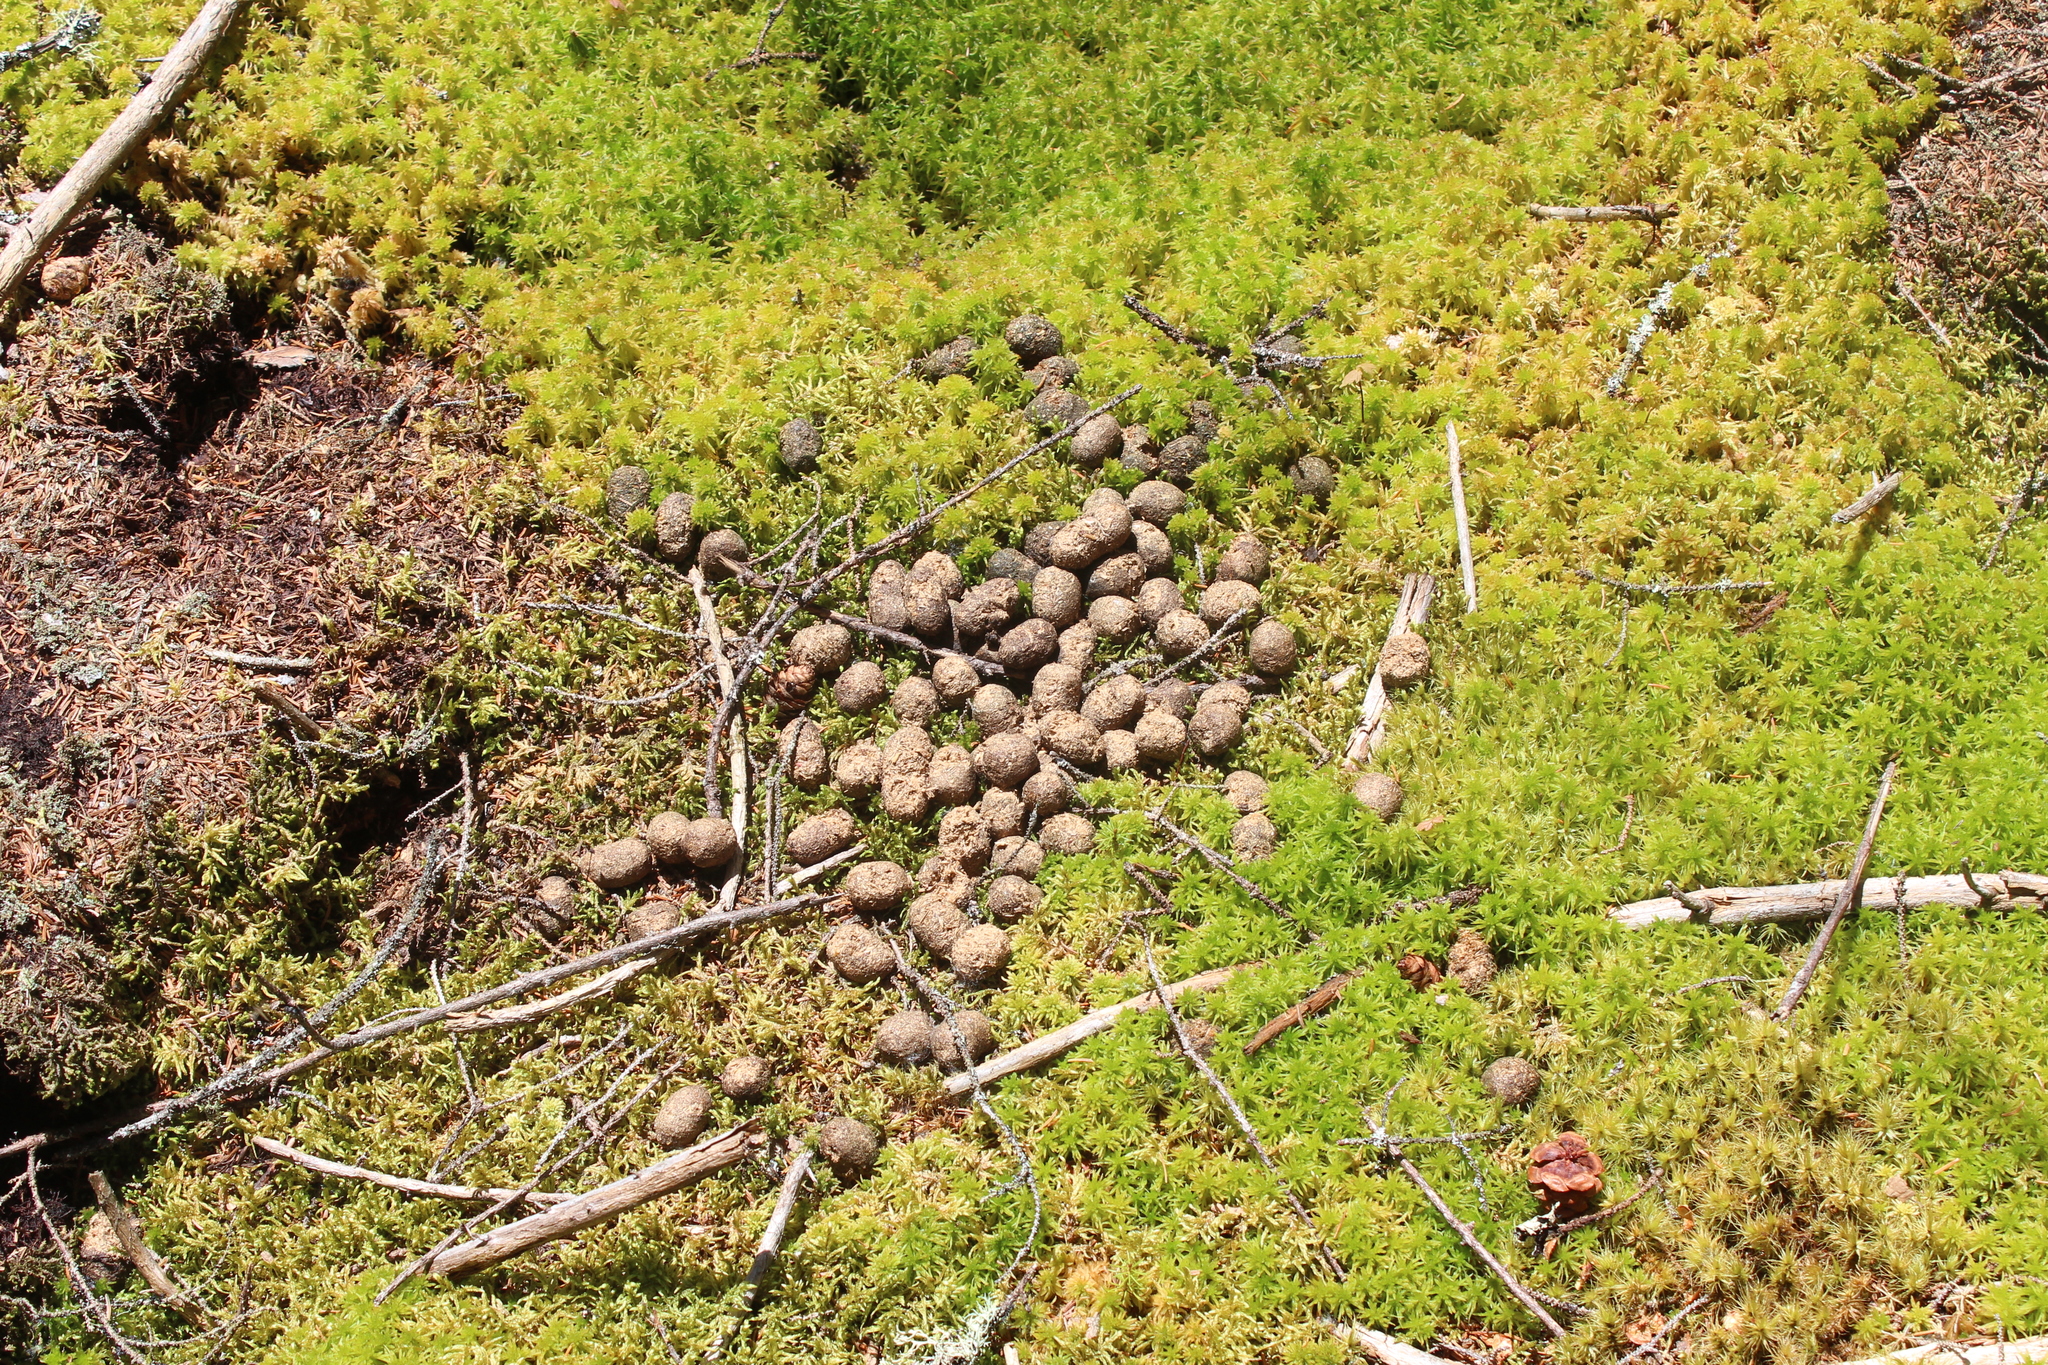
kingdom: Animalia
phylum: Chordata
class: Mammalia
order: Artiodactyla
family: Cervidae
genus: Alces
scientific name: Alces alces
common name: Moose
